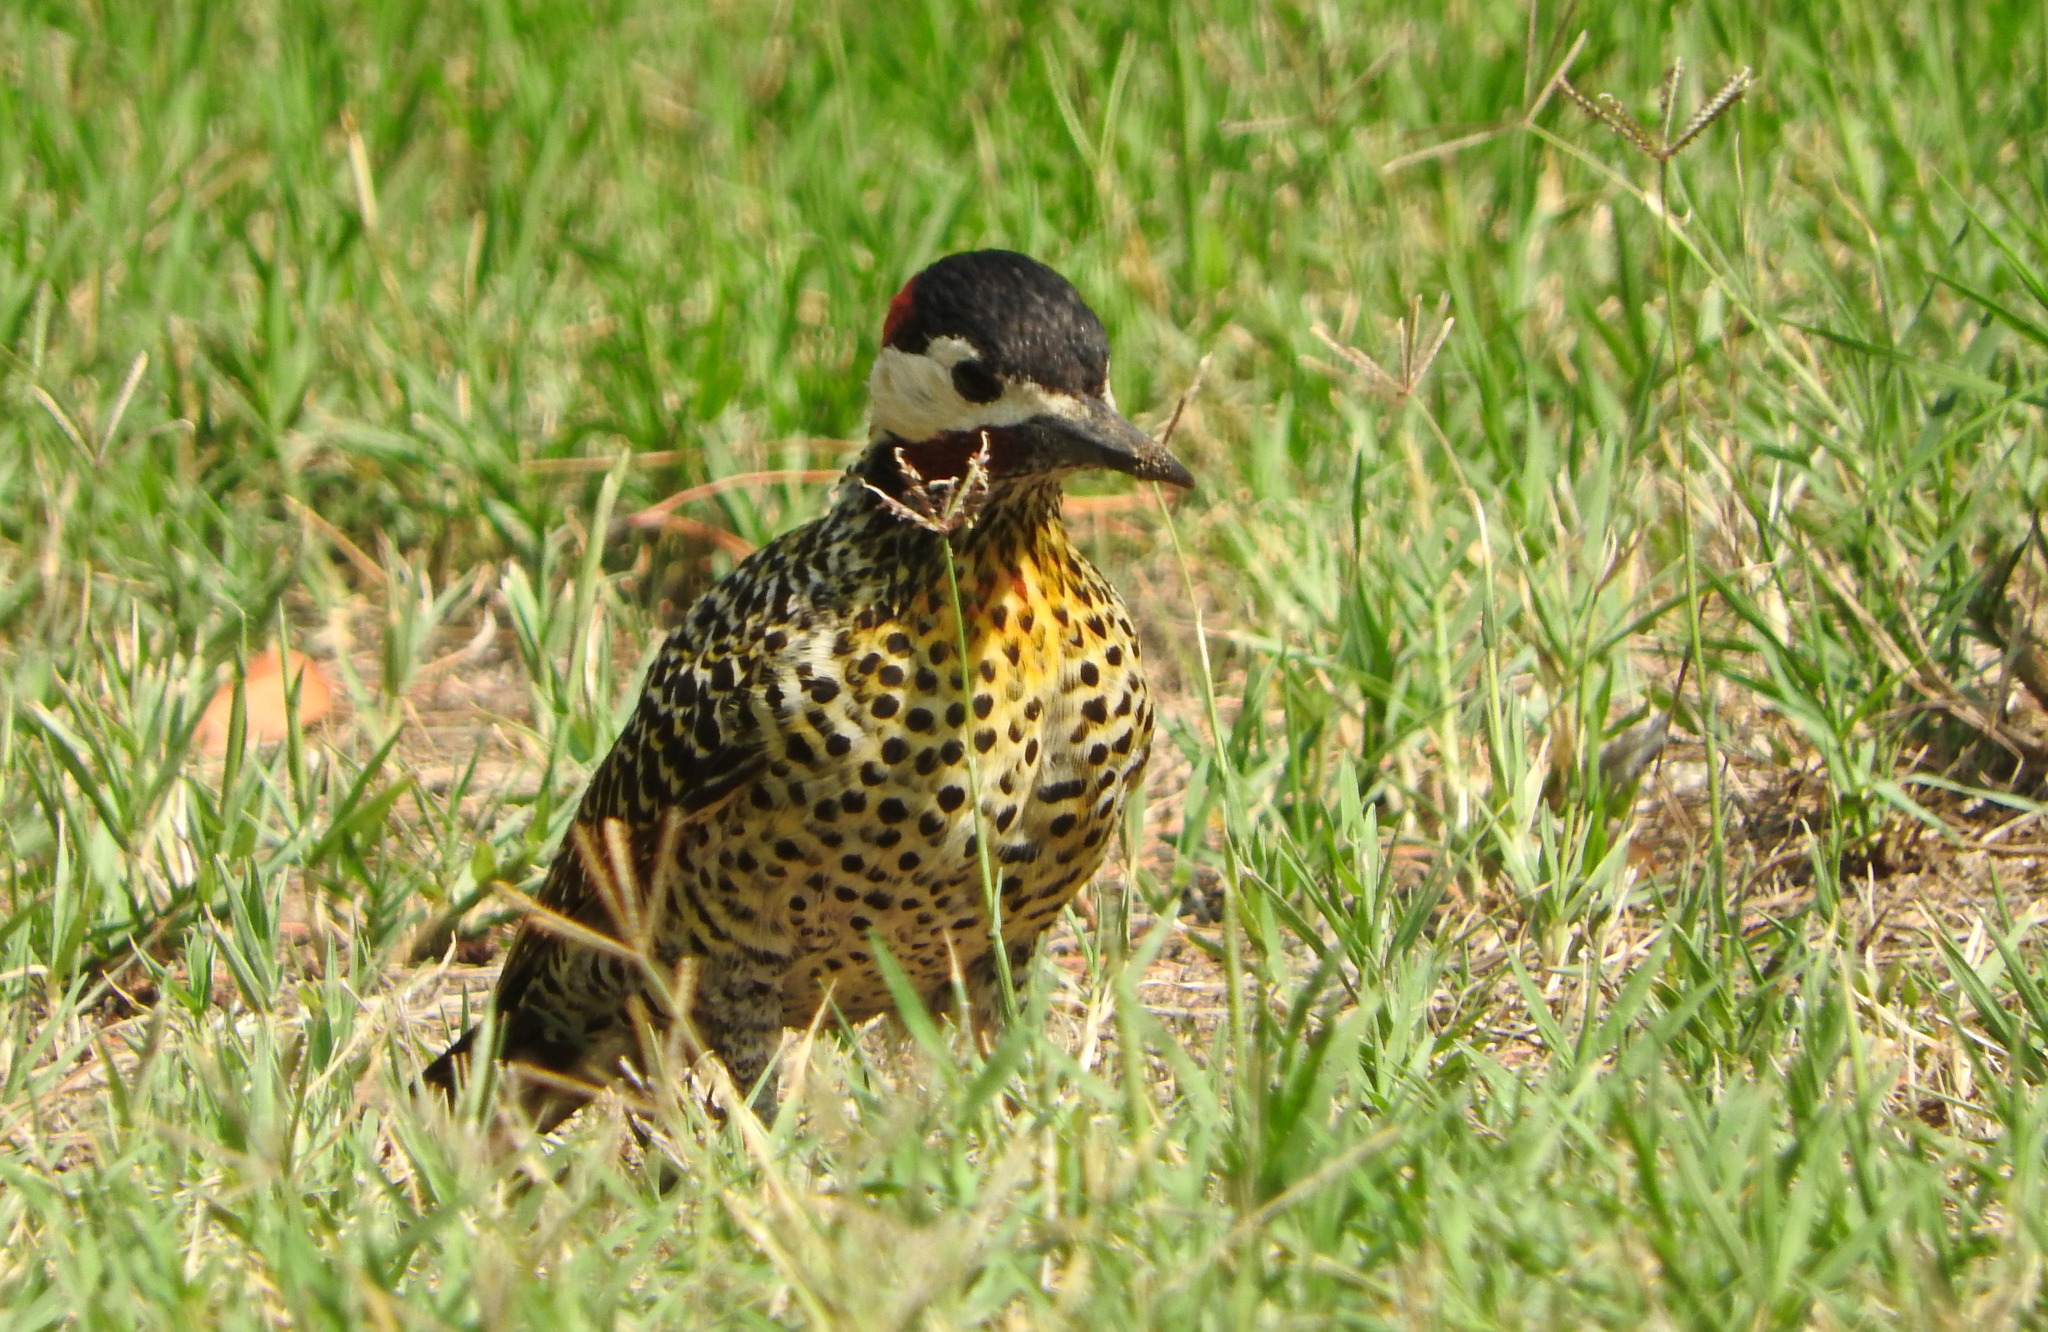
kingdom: Animalia
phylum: Chordata
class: Aves
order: Piciformes
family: Picidae
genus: Colaptes
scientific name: Colaptes melanochloros
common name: Green-barred woodpecker
